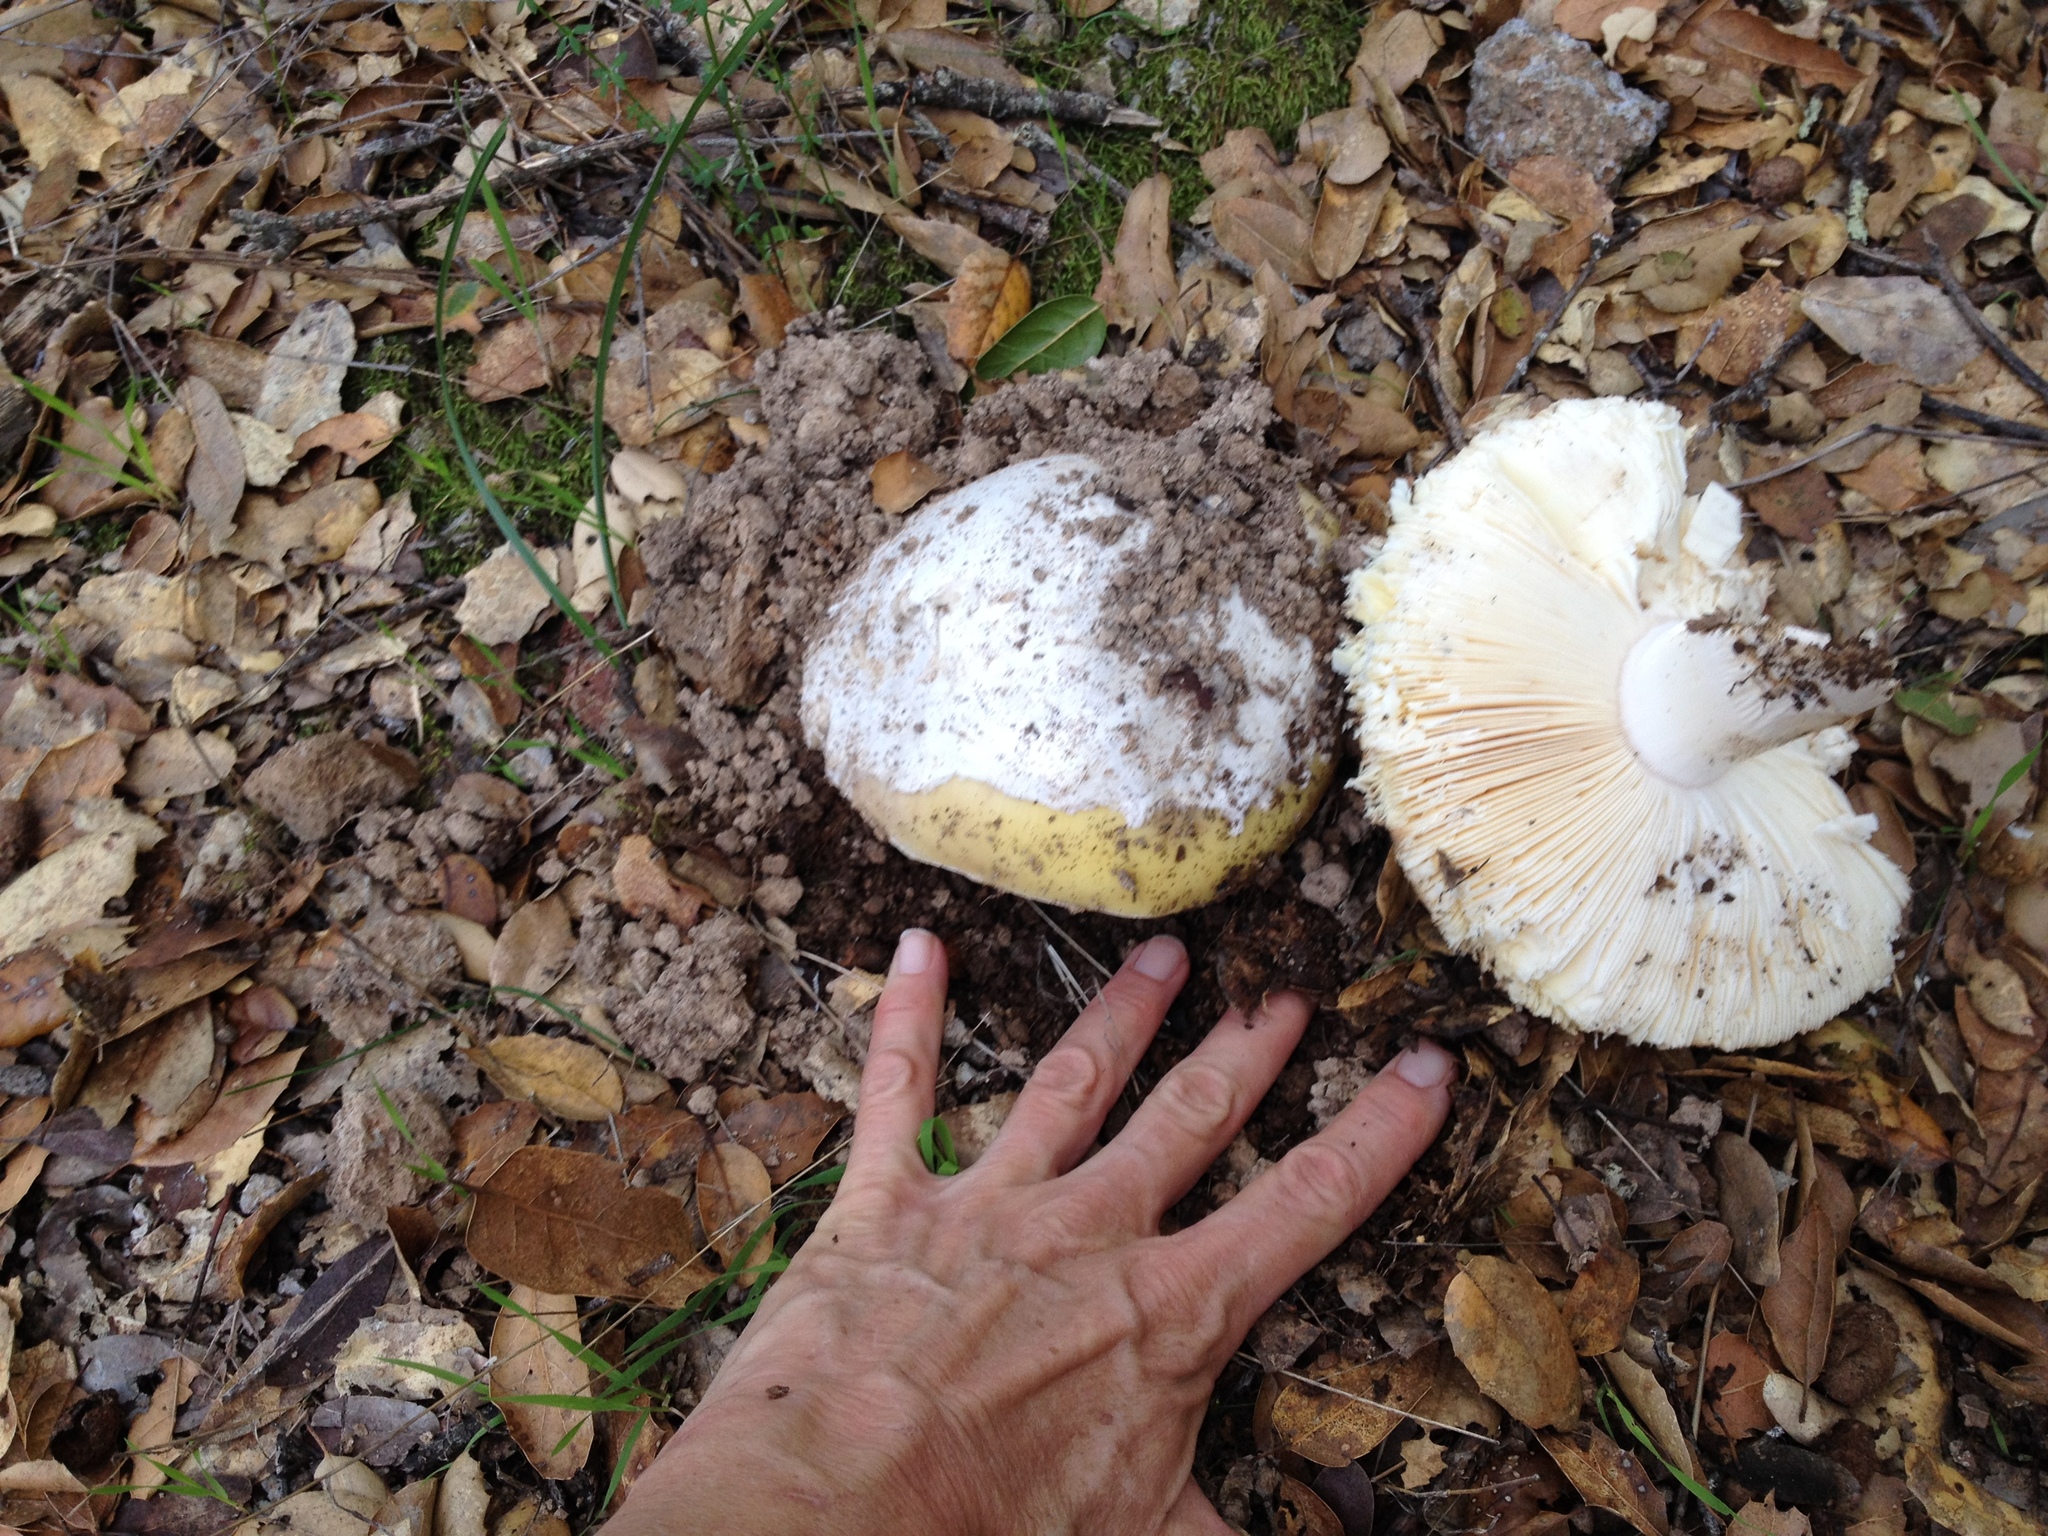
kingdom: Fungi
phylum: Basidiomycota
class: Agaricomycetes
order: Agaricales
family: Amanitaceae
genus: Amanita
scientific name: Amanita velosa
